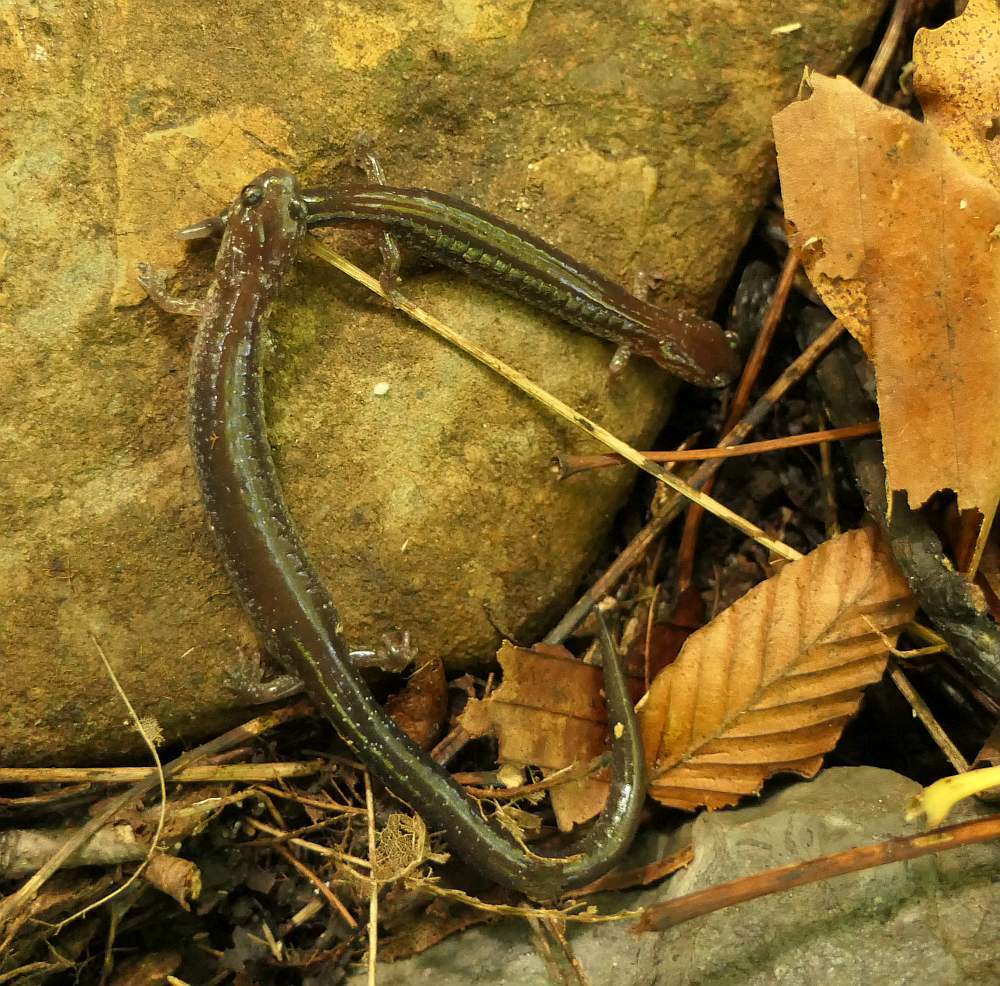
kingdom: Animalia
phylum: Chordata
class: Amphibia
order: Caudata
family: Plethodontidae
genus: Plethodon
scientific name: Plethodon cinereus
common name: Redback salamander
